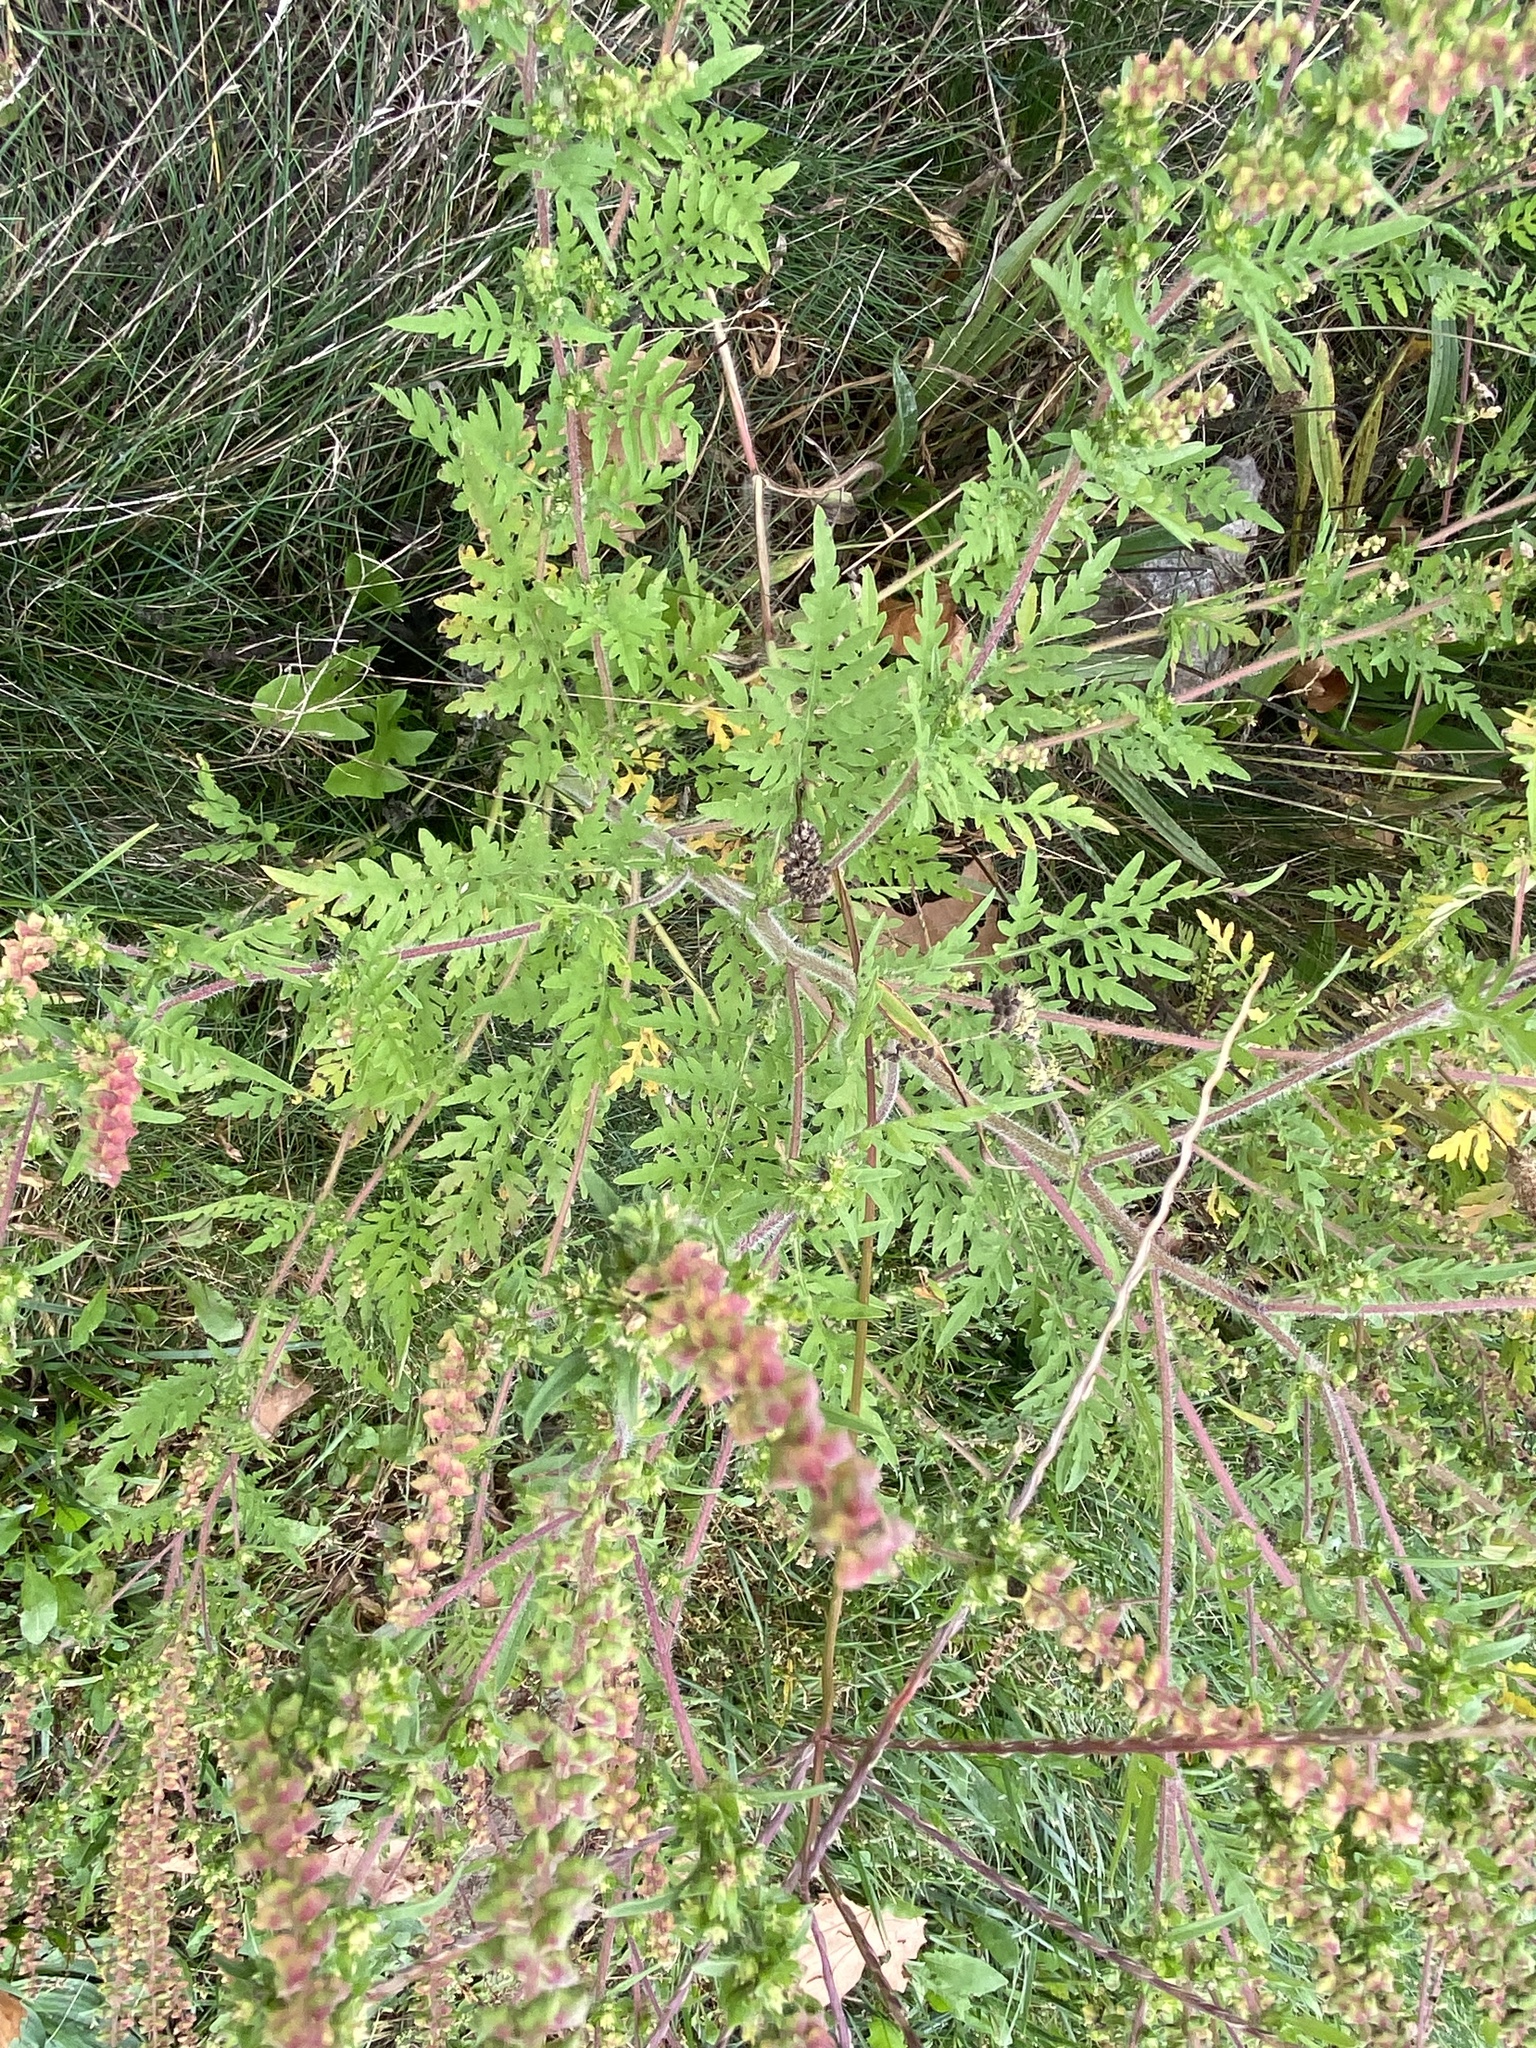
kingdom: Plantae
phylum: Tracheophyta
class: Magnoliopsida
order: Asterales
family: Asteraceae
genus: Ambrosia
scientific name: Ambrosia artemisiifolia
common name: Annual ragweed
